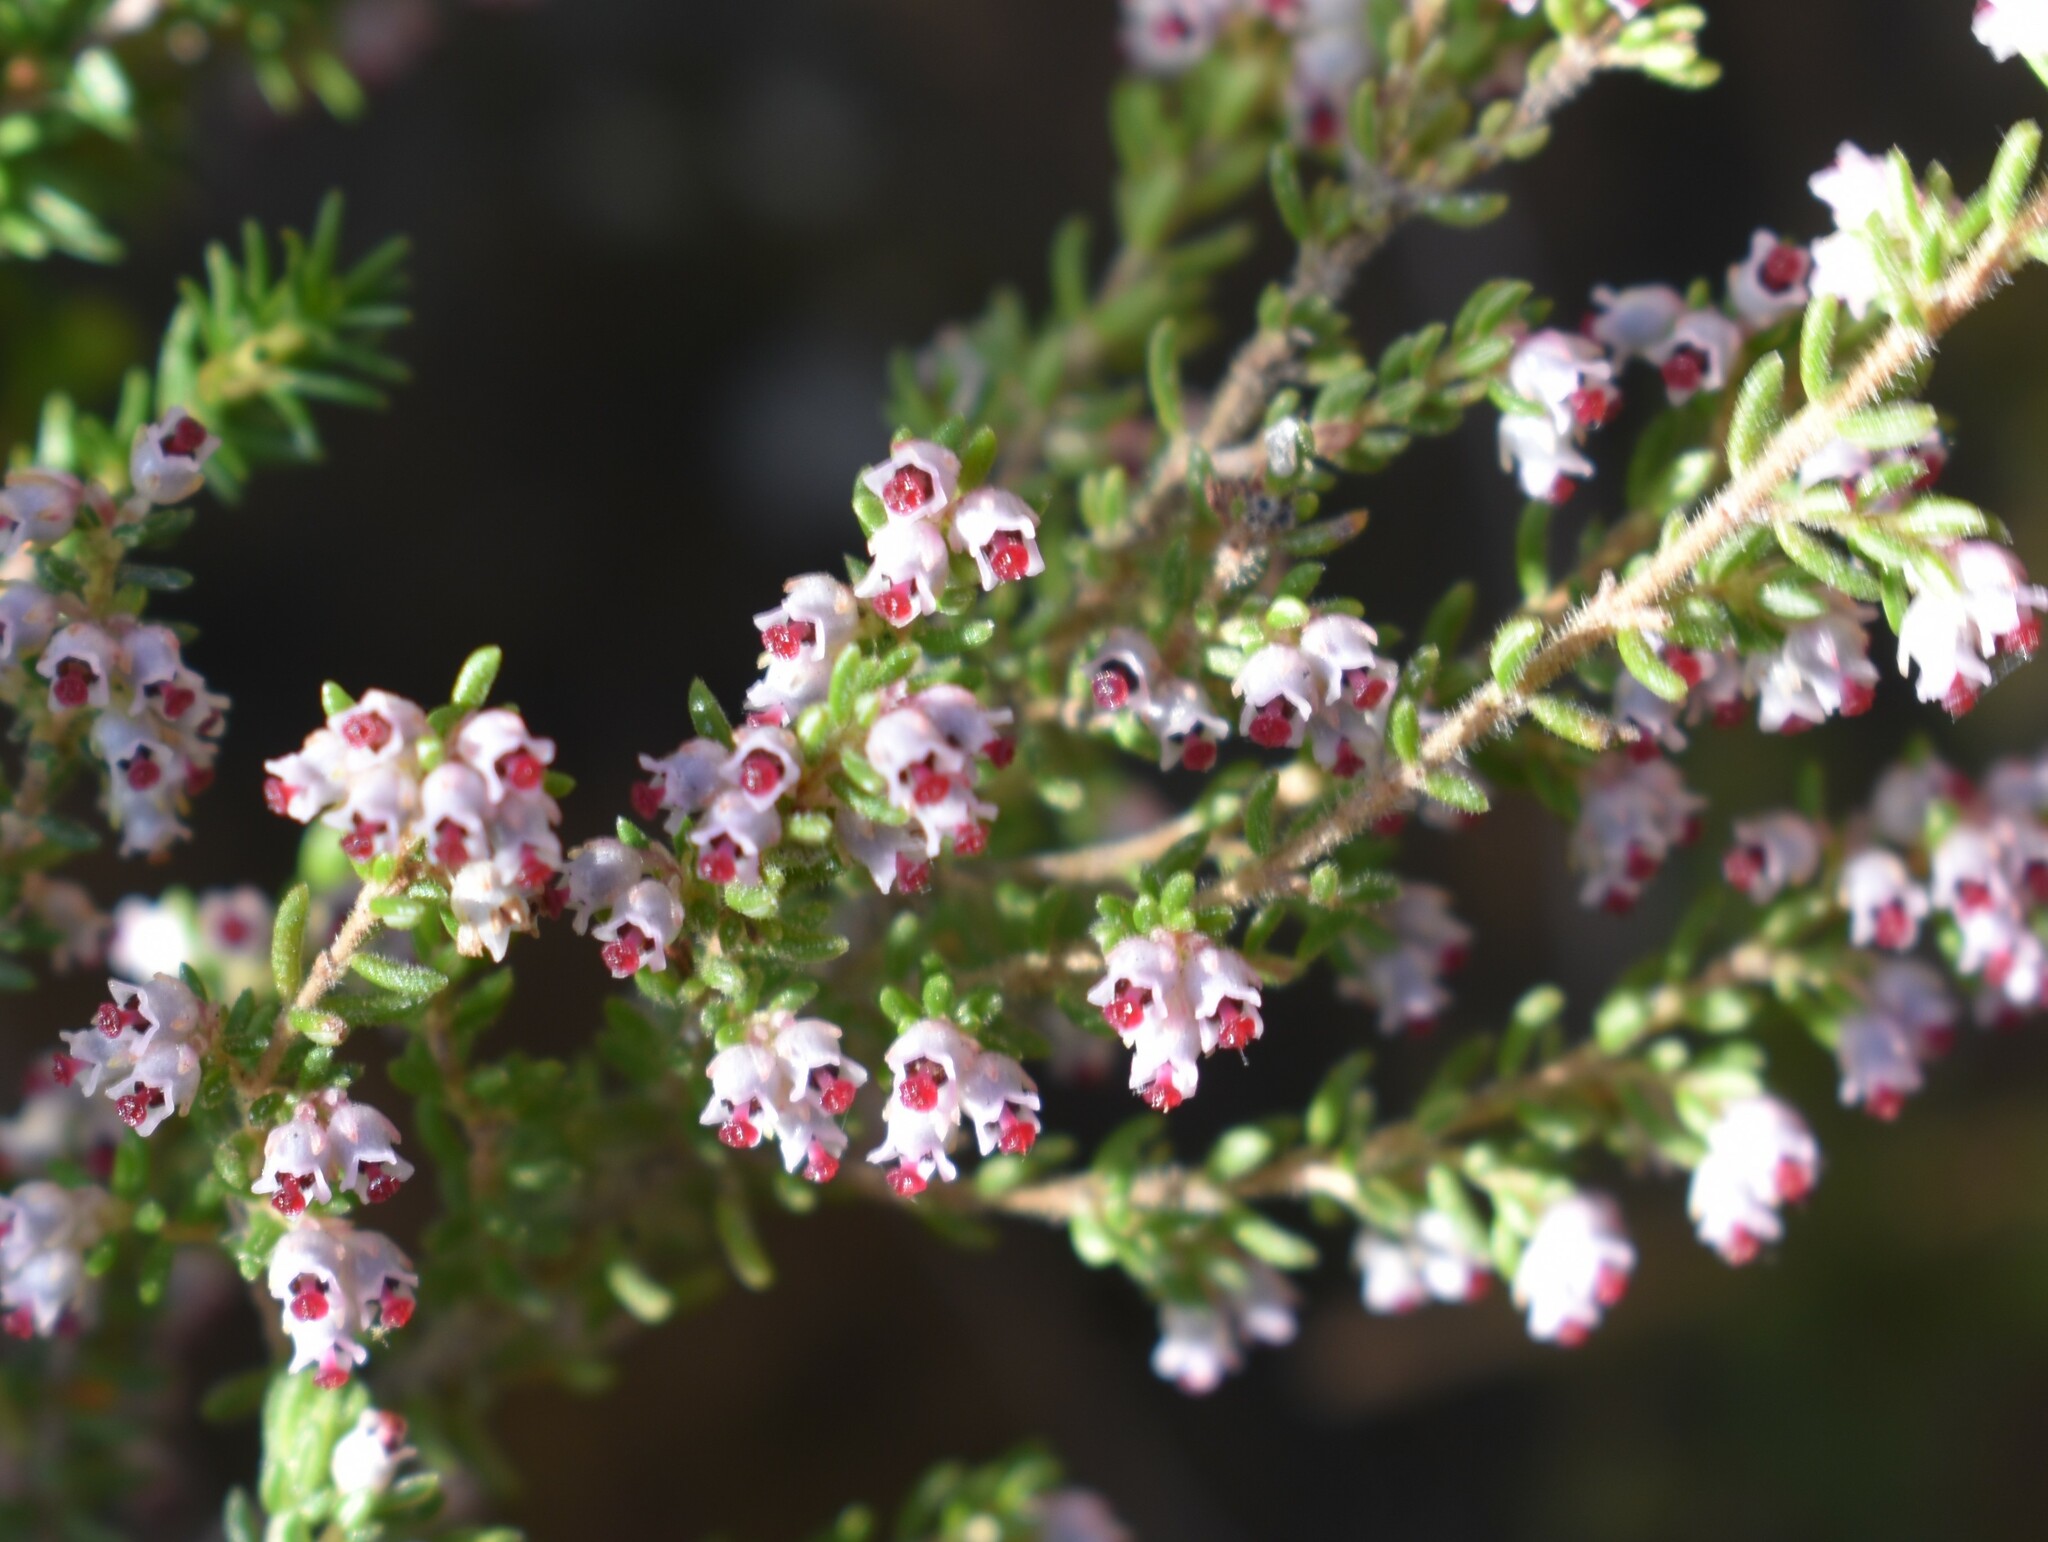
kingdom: Plantae
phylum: Tracheophyta
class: Magnoliopsida
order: Ericales
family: Ericaceae
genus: Erica
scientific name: Erica hispidula
